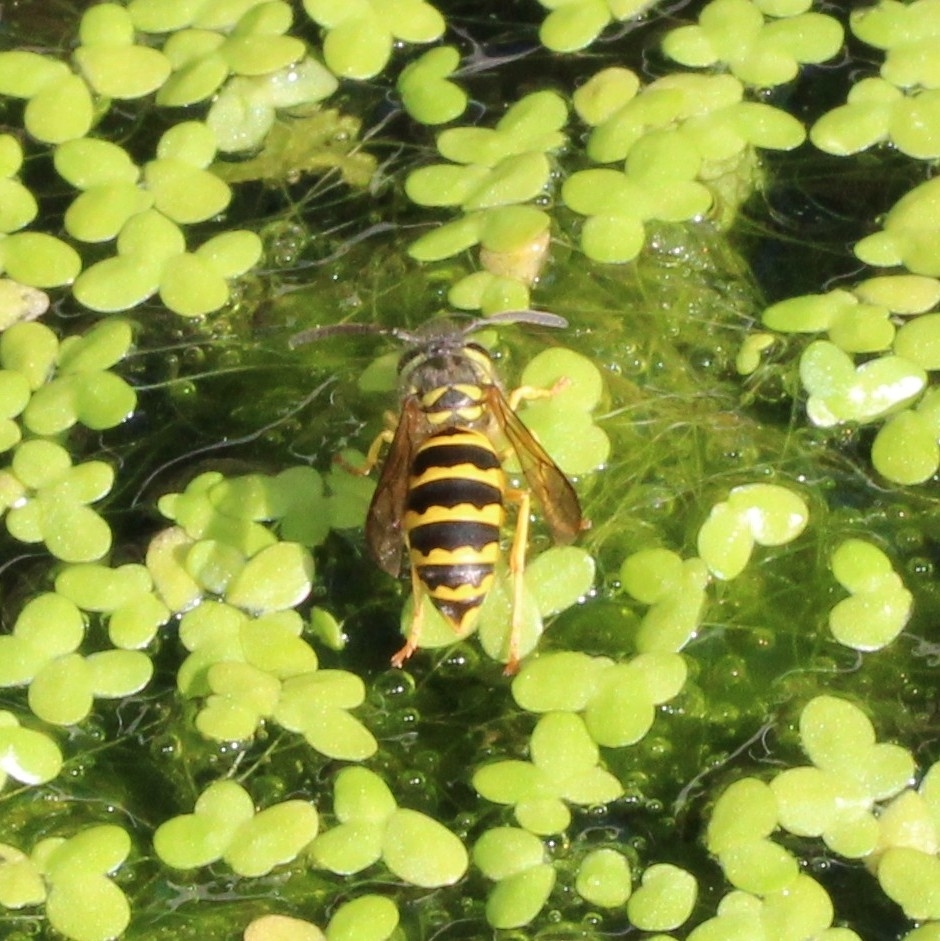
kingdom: Animalia
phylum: Arthropoda
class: Insecta
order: Hymenoptera
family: Vespidae
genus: Vespula
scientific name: Vespula maculifrons
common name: Eastern yellowjacket
